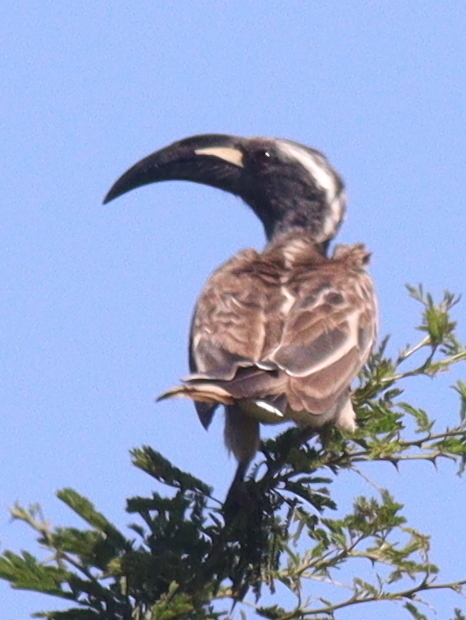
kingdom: Animalia
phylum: Chordata
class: Aves
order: Bucerotiformes
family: Bucerotidae
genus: Lophoceros
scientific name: Lophoceros nasutus
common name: African grey hornbill
